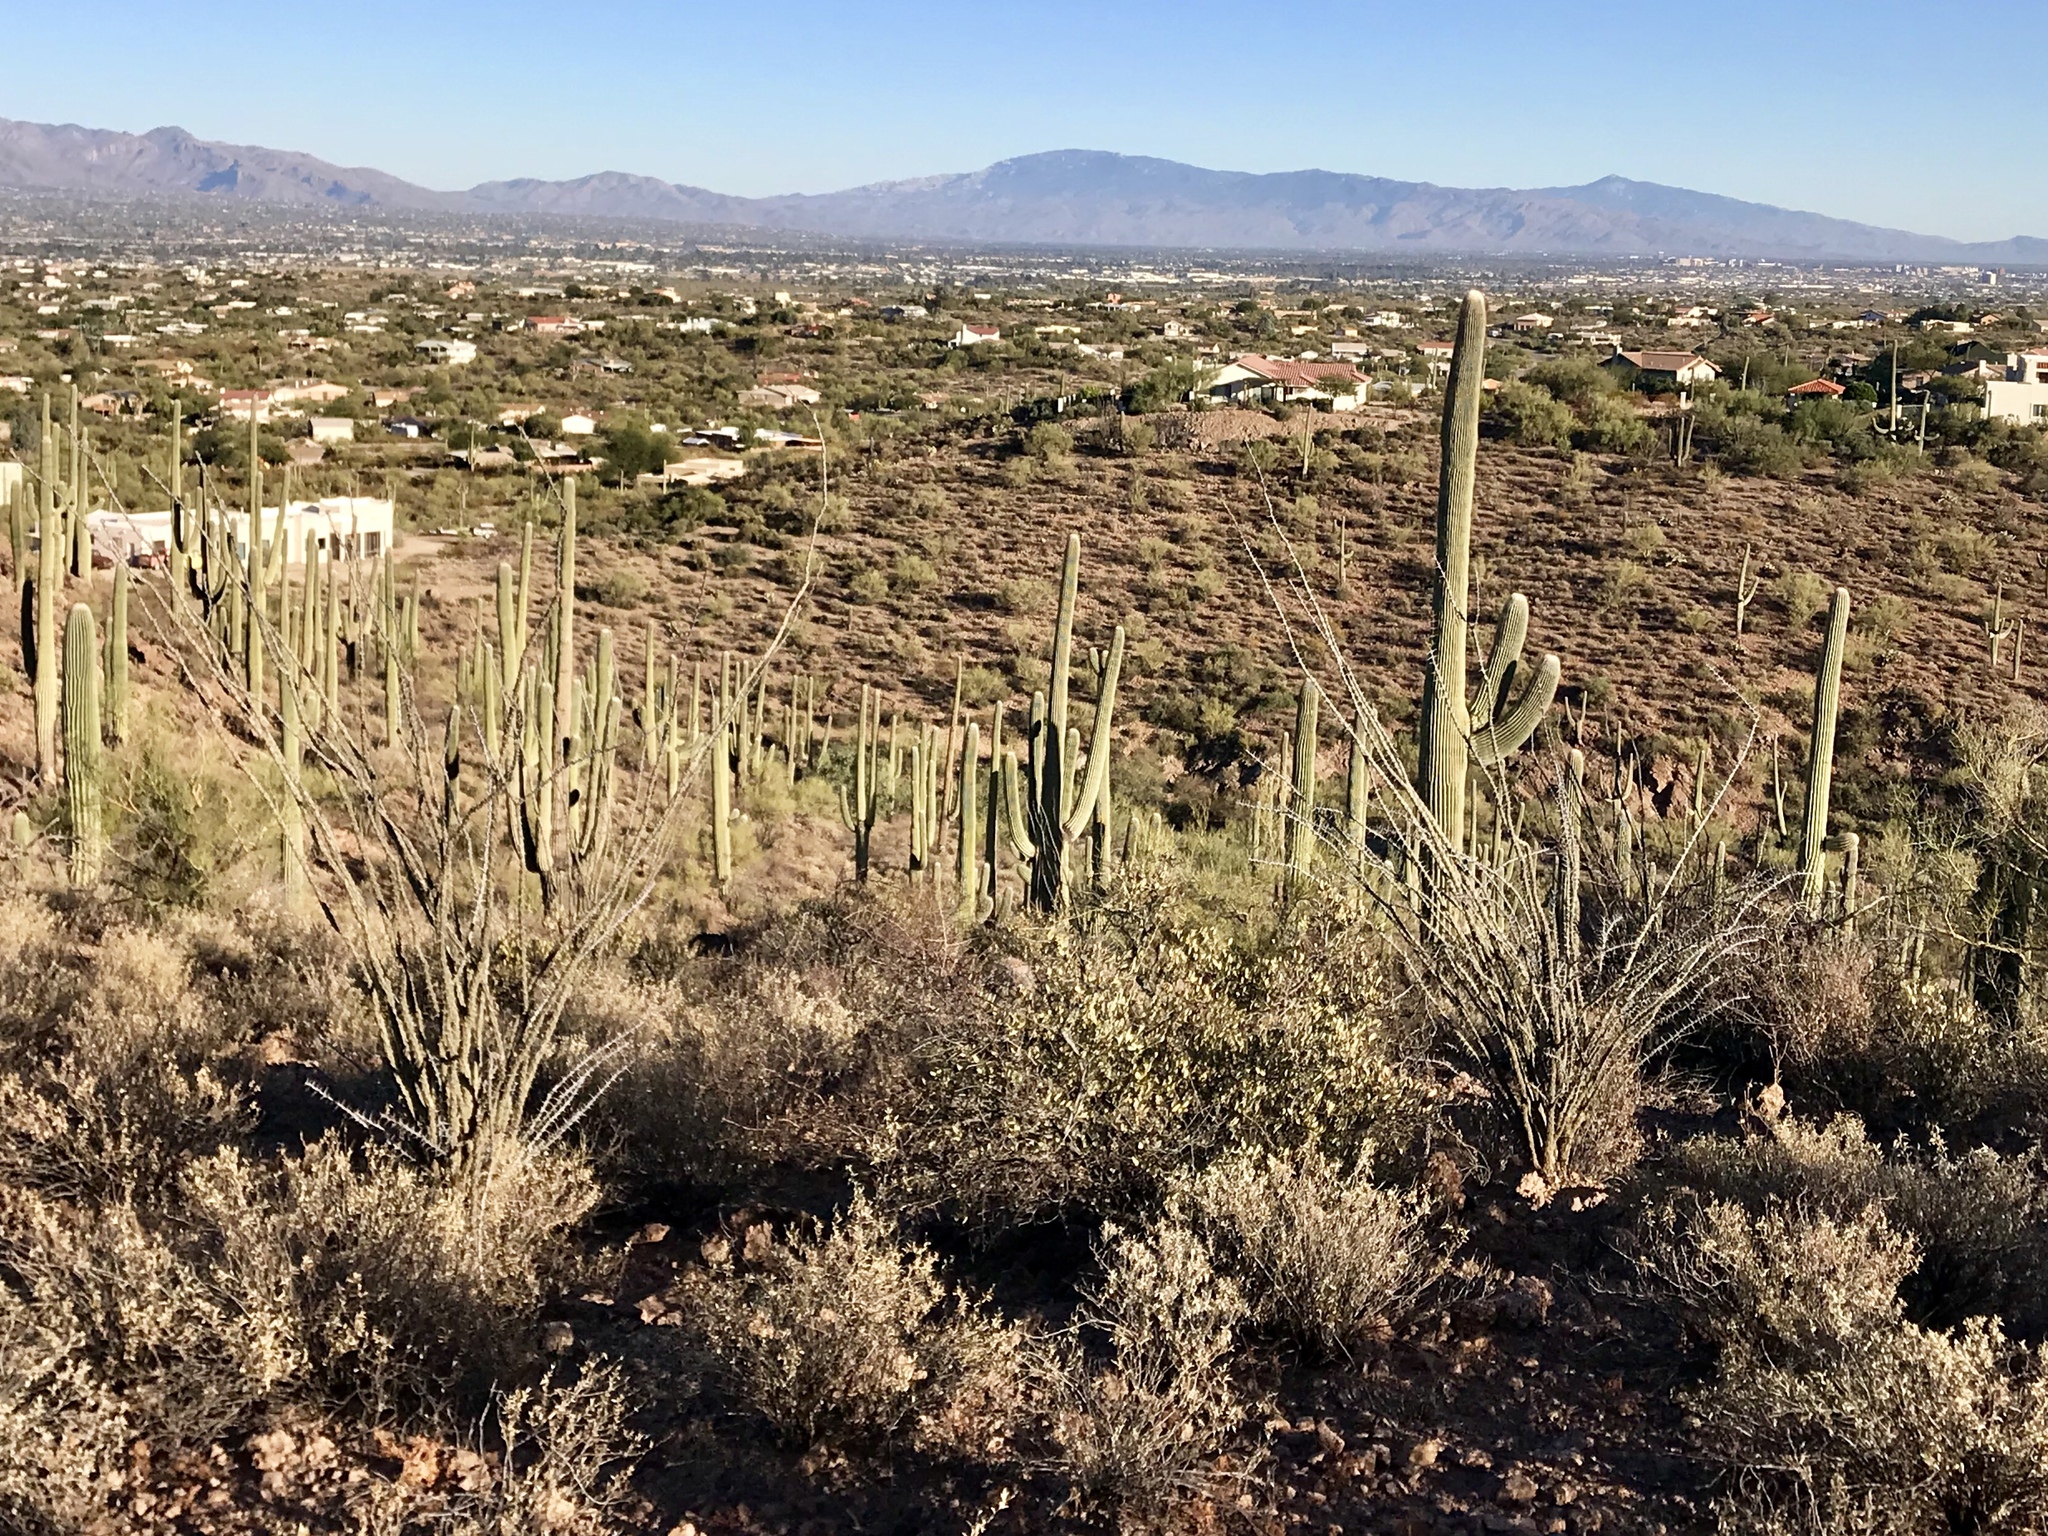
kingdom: Plantae
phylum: Tracheophyta
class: Magnoliopsida
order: Ericales
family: Fouquieriaceae
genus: Fouquieria
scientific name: Fouquieria splendens
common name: Vine-cactus
